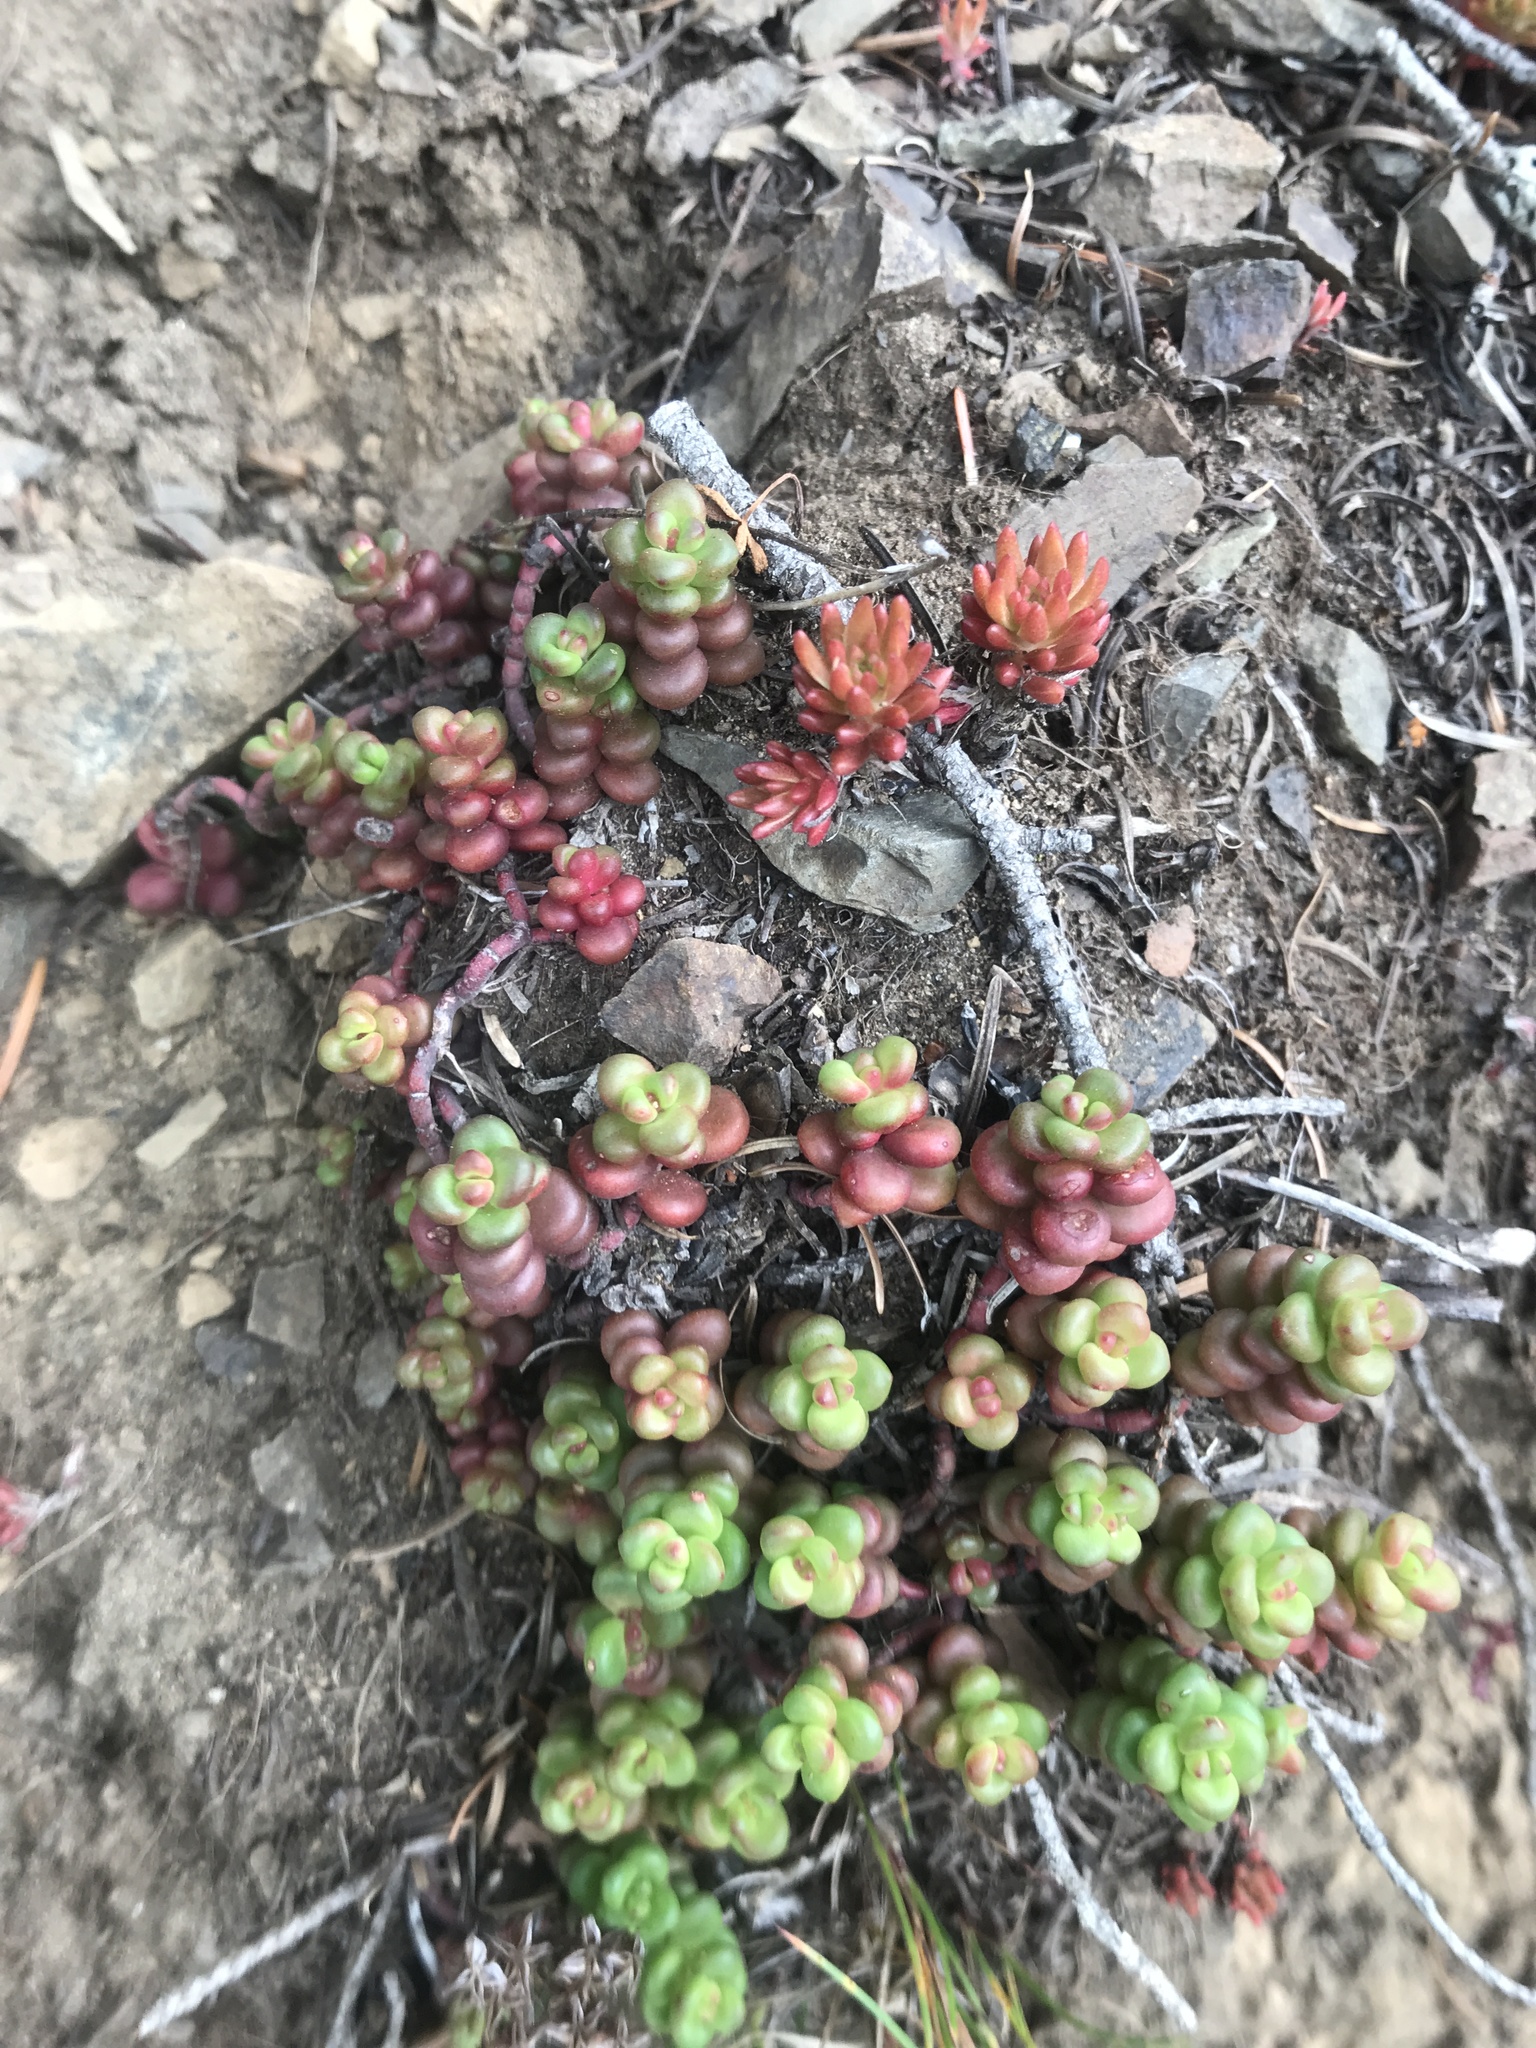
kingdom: Plantae
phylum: Tracheophyta
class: Magnoliopsida
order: Saxifragales
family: Crassulaceae
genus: Sedum
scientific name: Sedum divergens
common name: Cascade stonecrop
